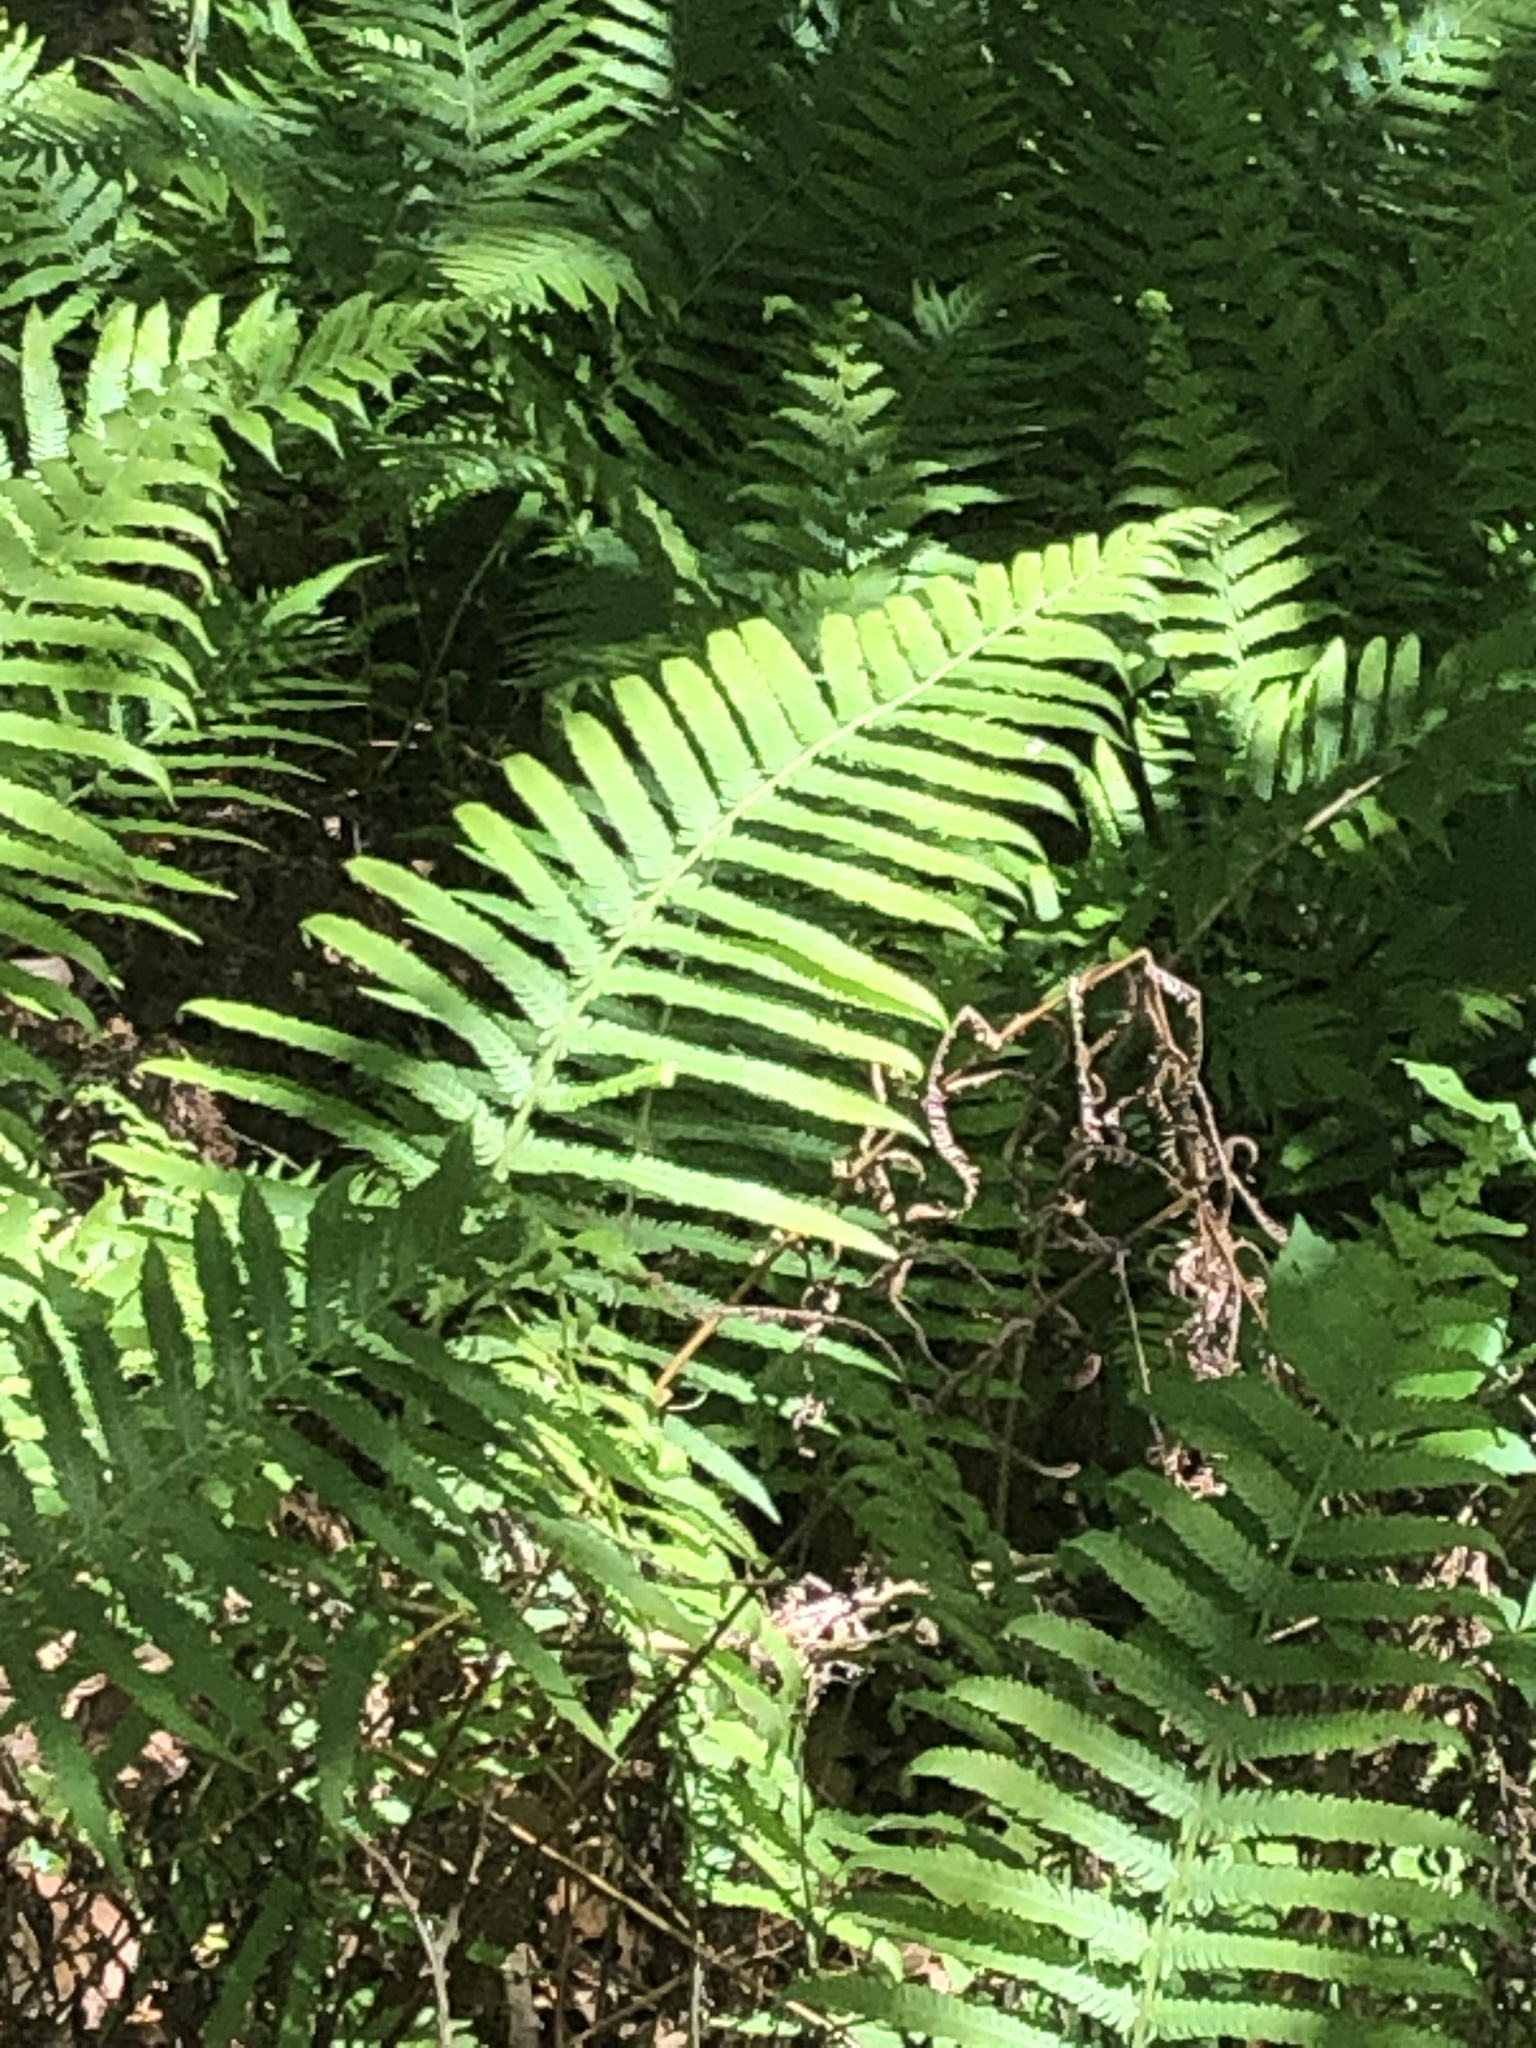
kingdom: Plantae
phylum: Tracheophyta
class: Polypodiopsida
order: Polypodiales
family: Thelypteridaceae
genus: Pelazoneuron
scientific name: Pelazoneuron ovatum
